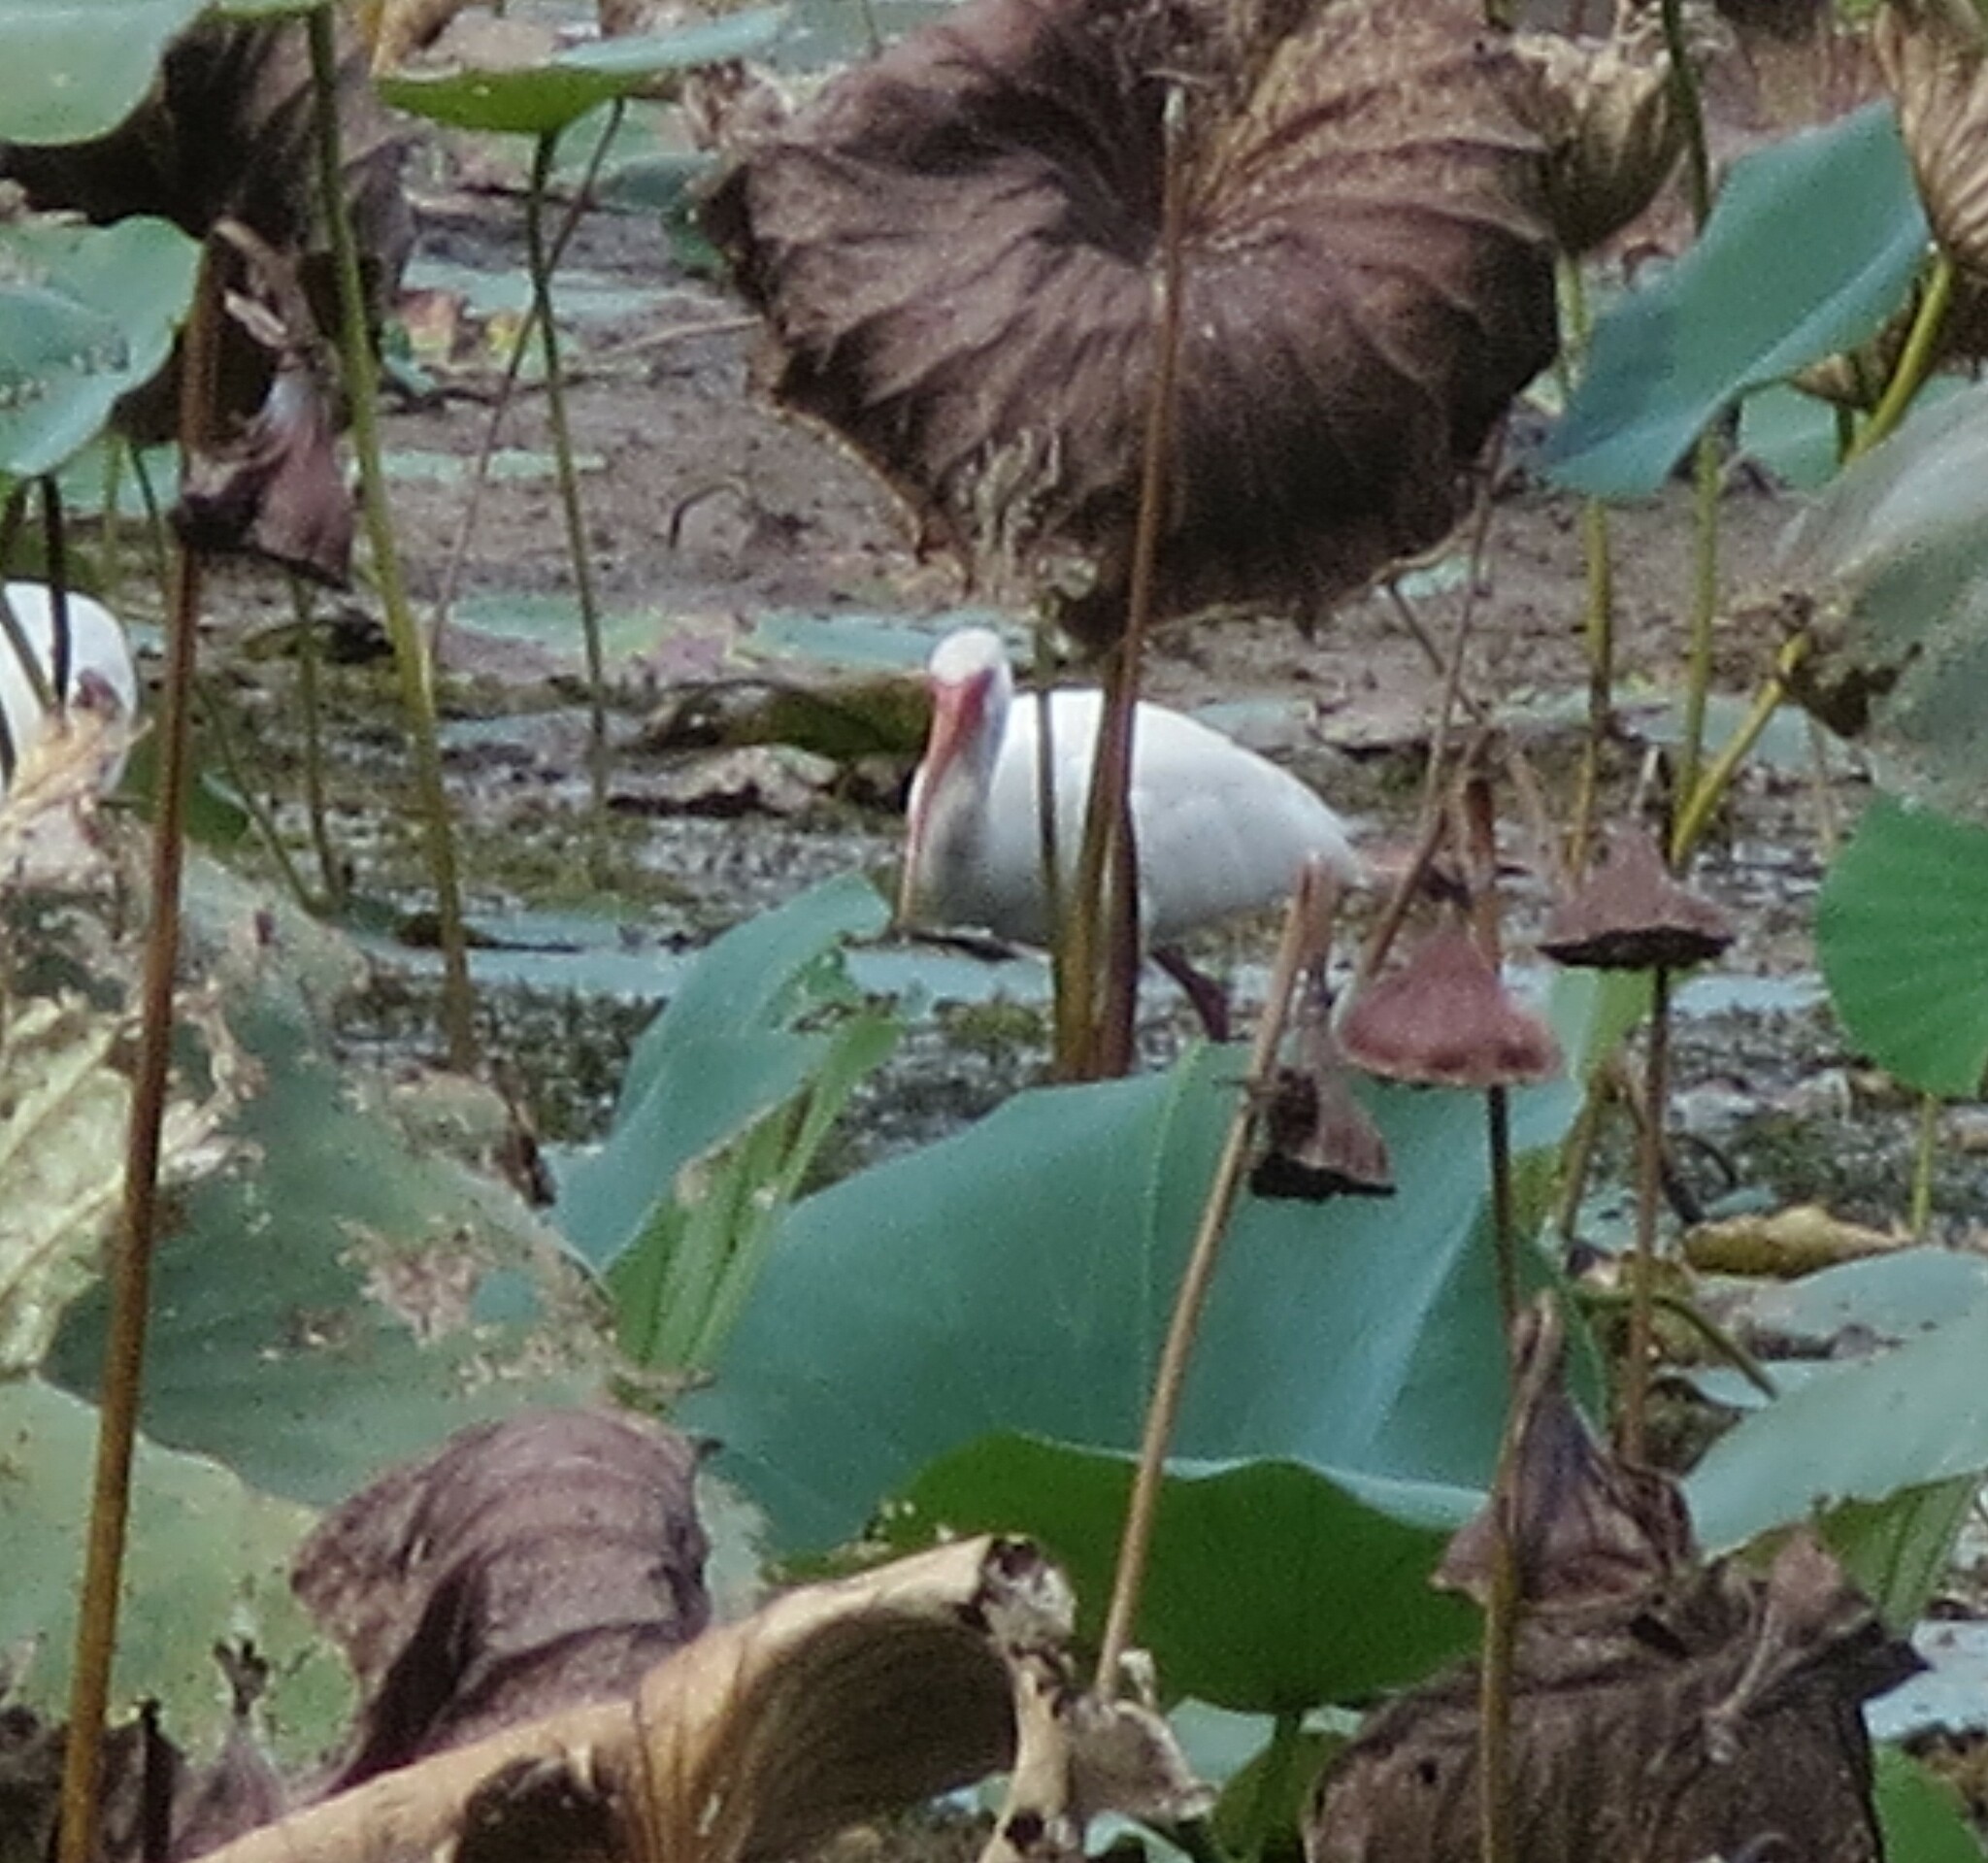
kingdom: Animalia
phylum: Chordata
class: Aves
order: Pelecaniformes
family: Threskiornithidae
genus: Eudocimus
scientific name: Eudocimus albus
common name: White ibis
